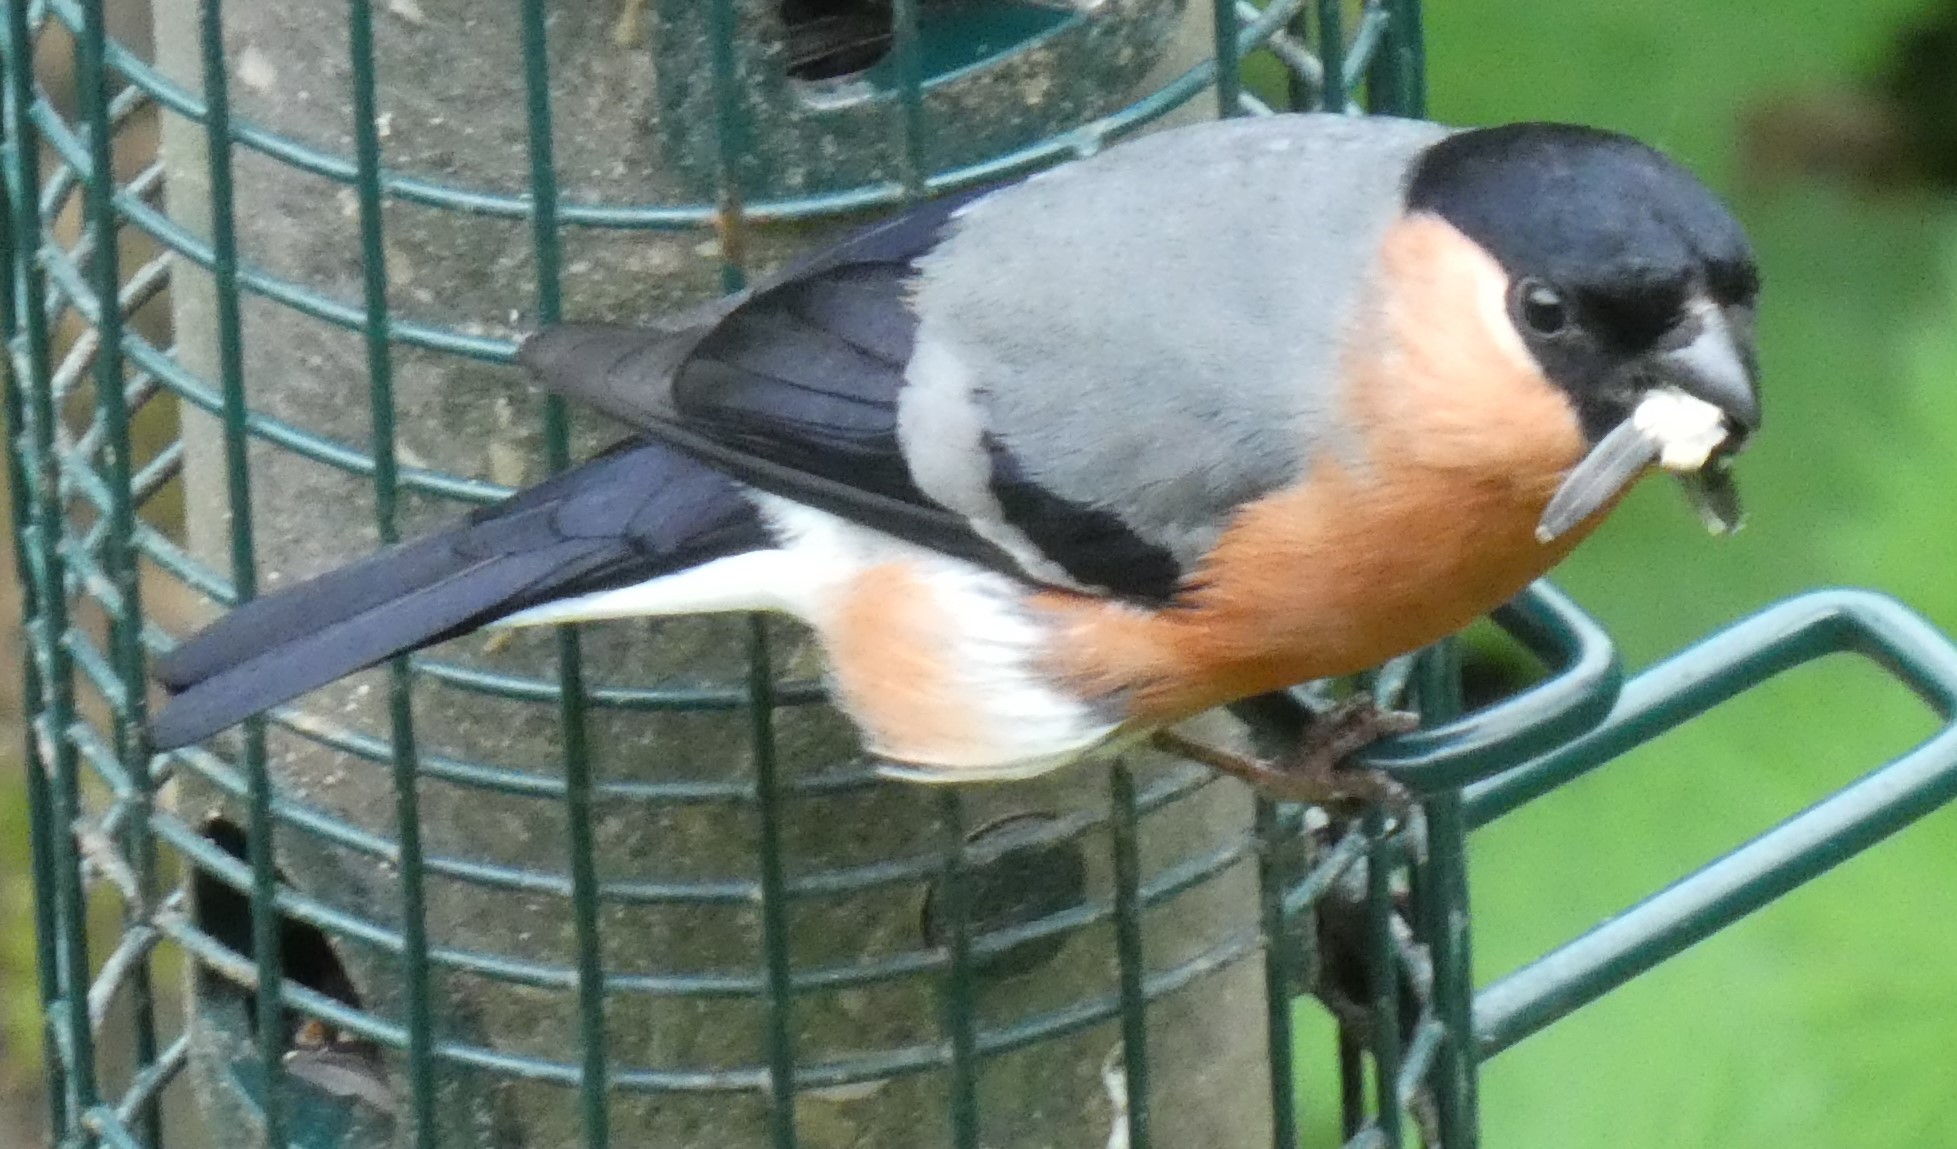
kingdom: Animalia
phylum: Chordata
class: Aves
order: Passeriformes
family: Fringillidae
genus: Pyrrhula
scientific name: Pyrrhula pyrrhula
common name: Eurasian bullfinch
